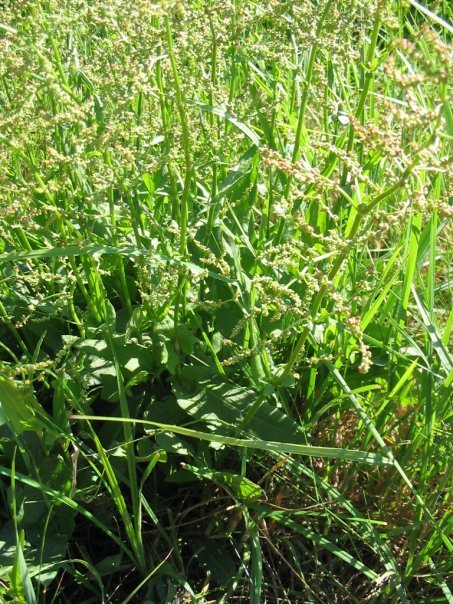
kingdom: Plantae
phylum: Tracheophyta
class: Magnoliopsida
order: Caryophyllales
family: Polygonaceae
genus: Rumex
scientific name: Rumex acetosa
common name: Garden sorrel
